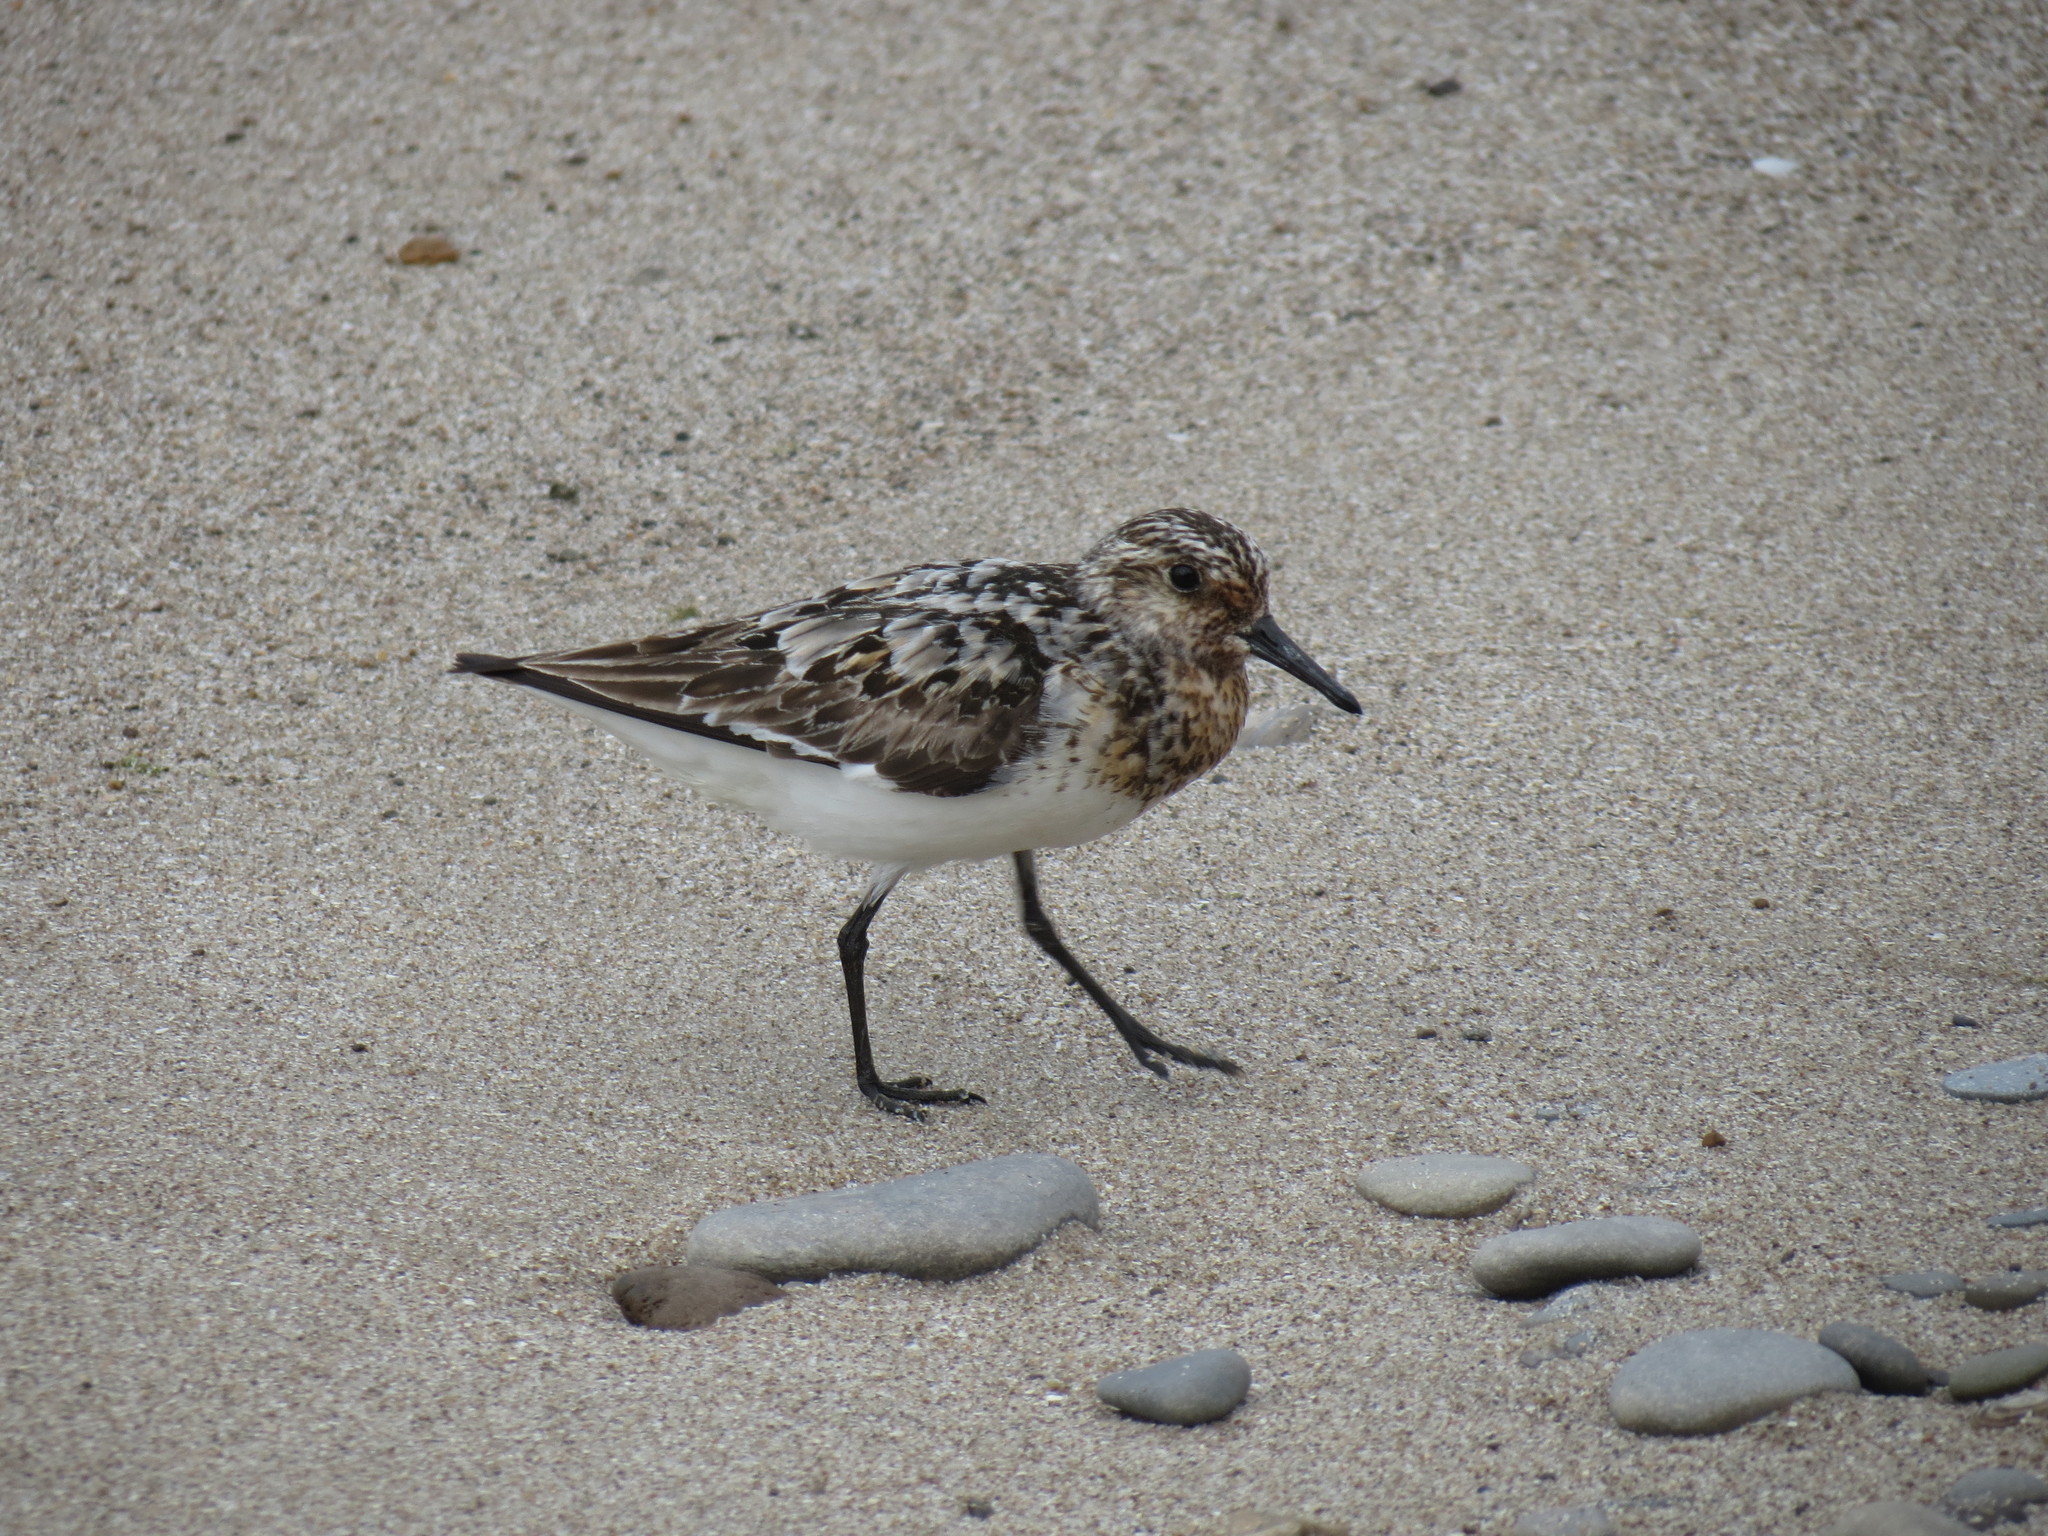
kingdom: Animalia
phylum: Chordata
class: Aves
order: Charadriiformes
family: Scolopacidae
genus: Calidris
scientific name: Calidris alba
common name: Sanderling
